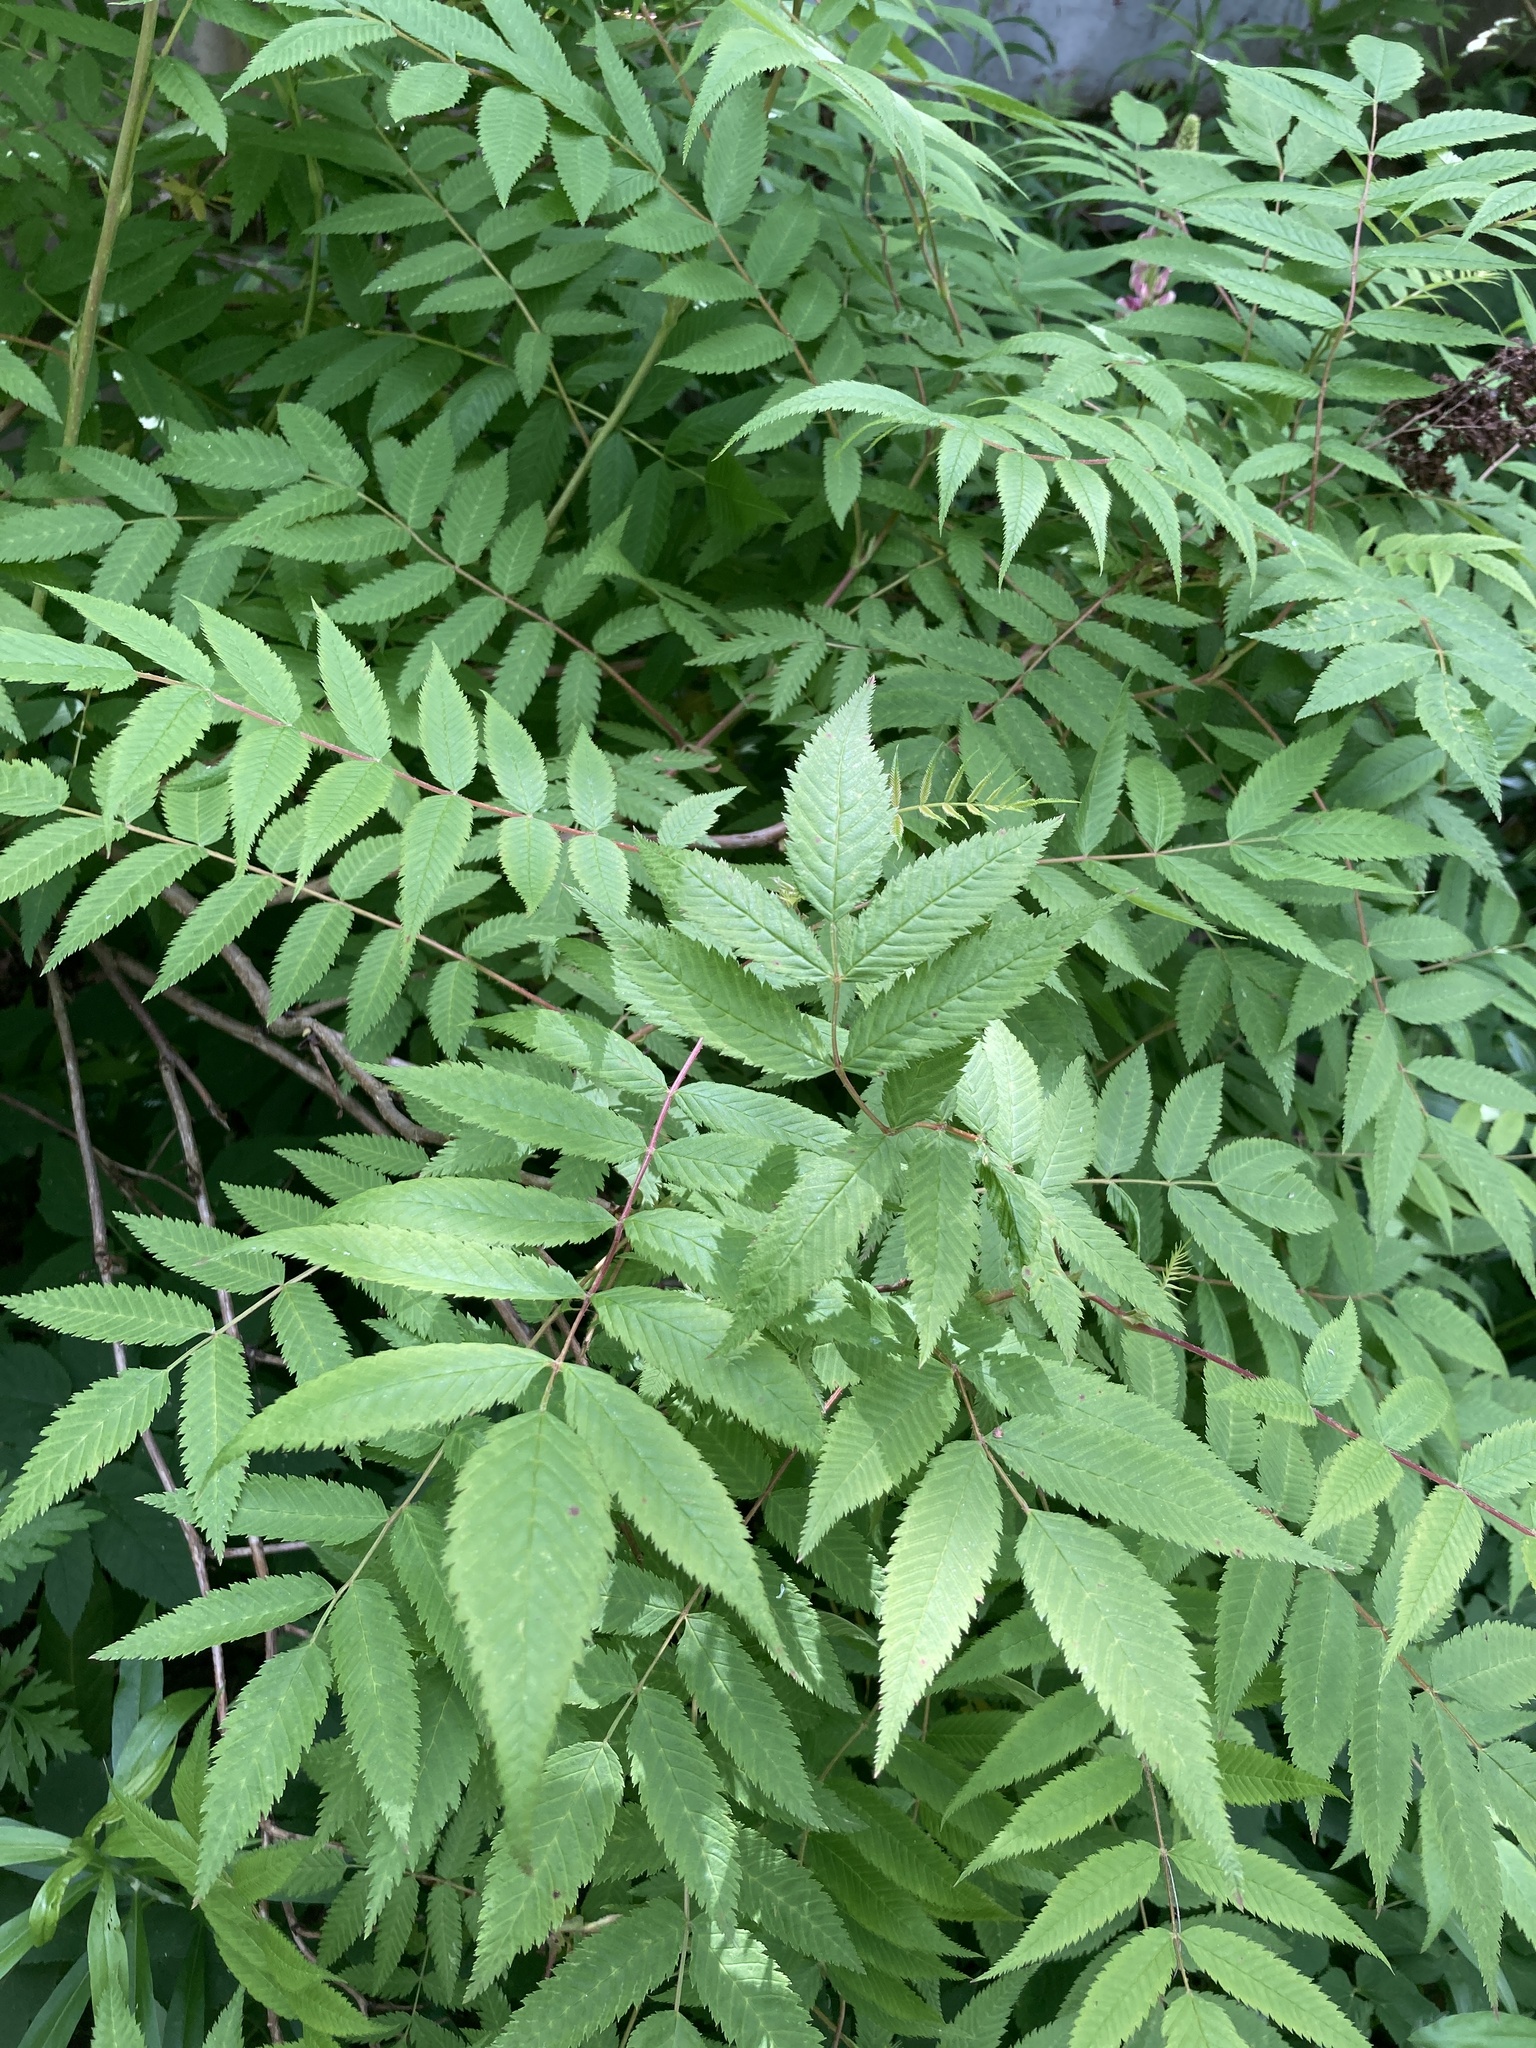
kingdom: Plantae
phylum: Tracheophyta
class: Magnoliopsida
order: Rosales
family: Rosaceae
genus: Sorbaria
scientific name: Sorbaria sorbifolia
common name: False spiraea
